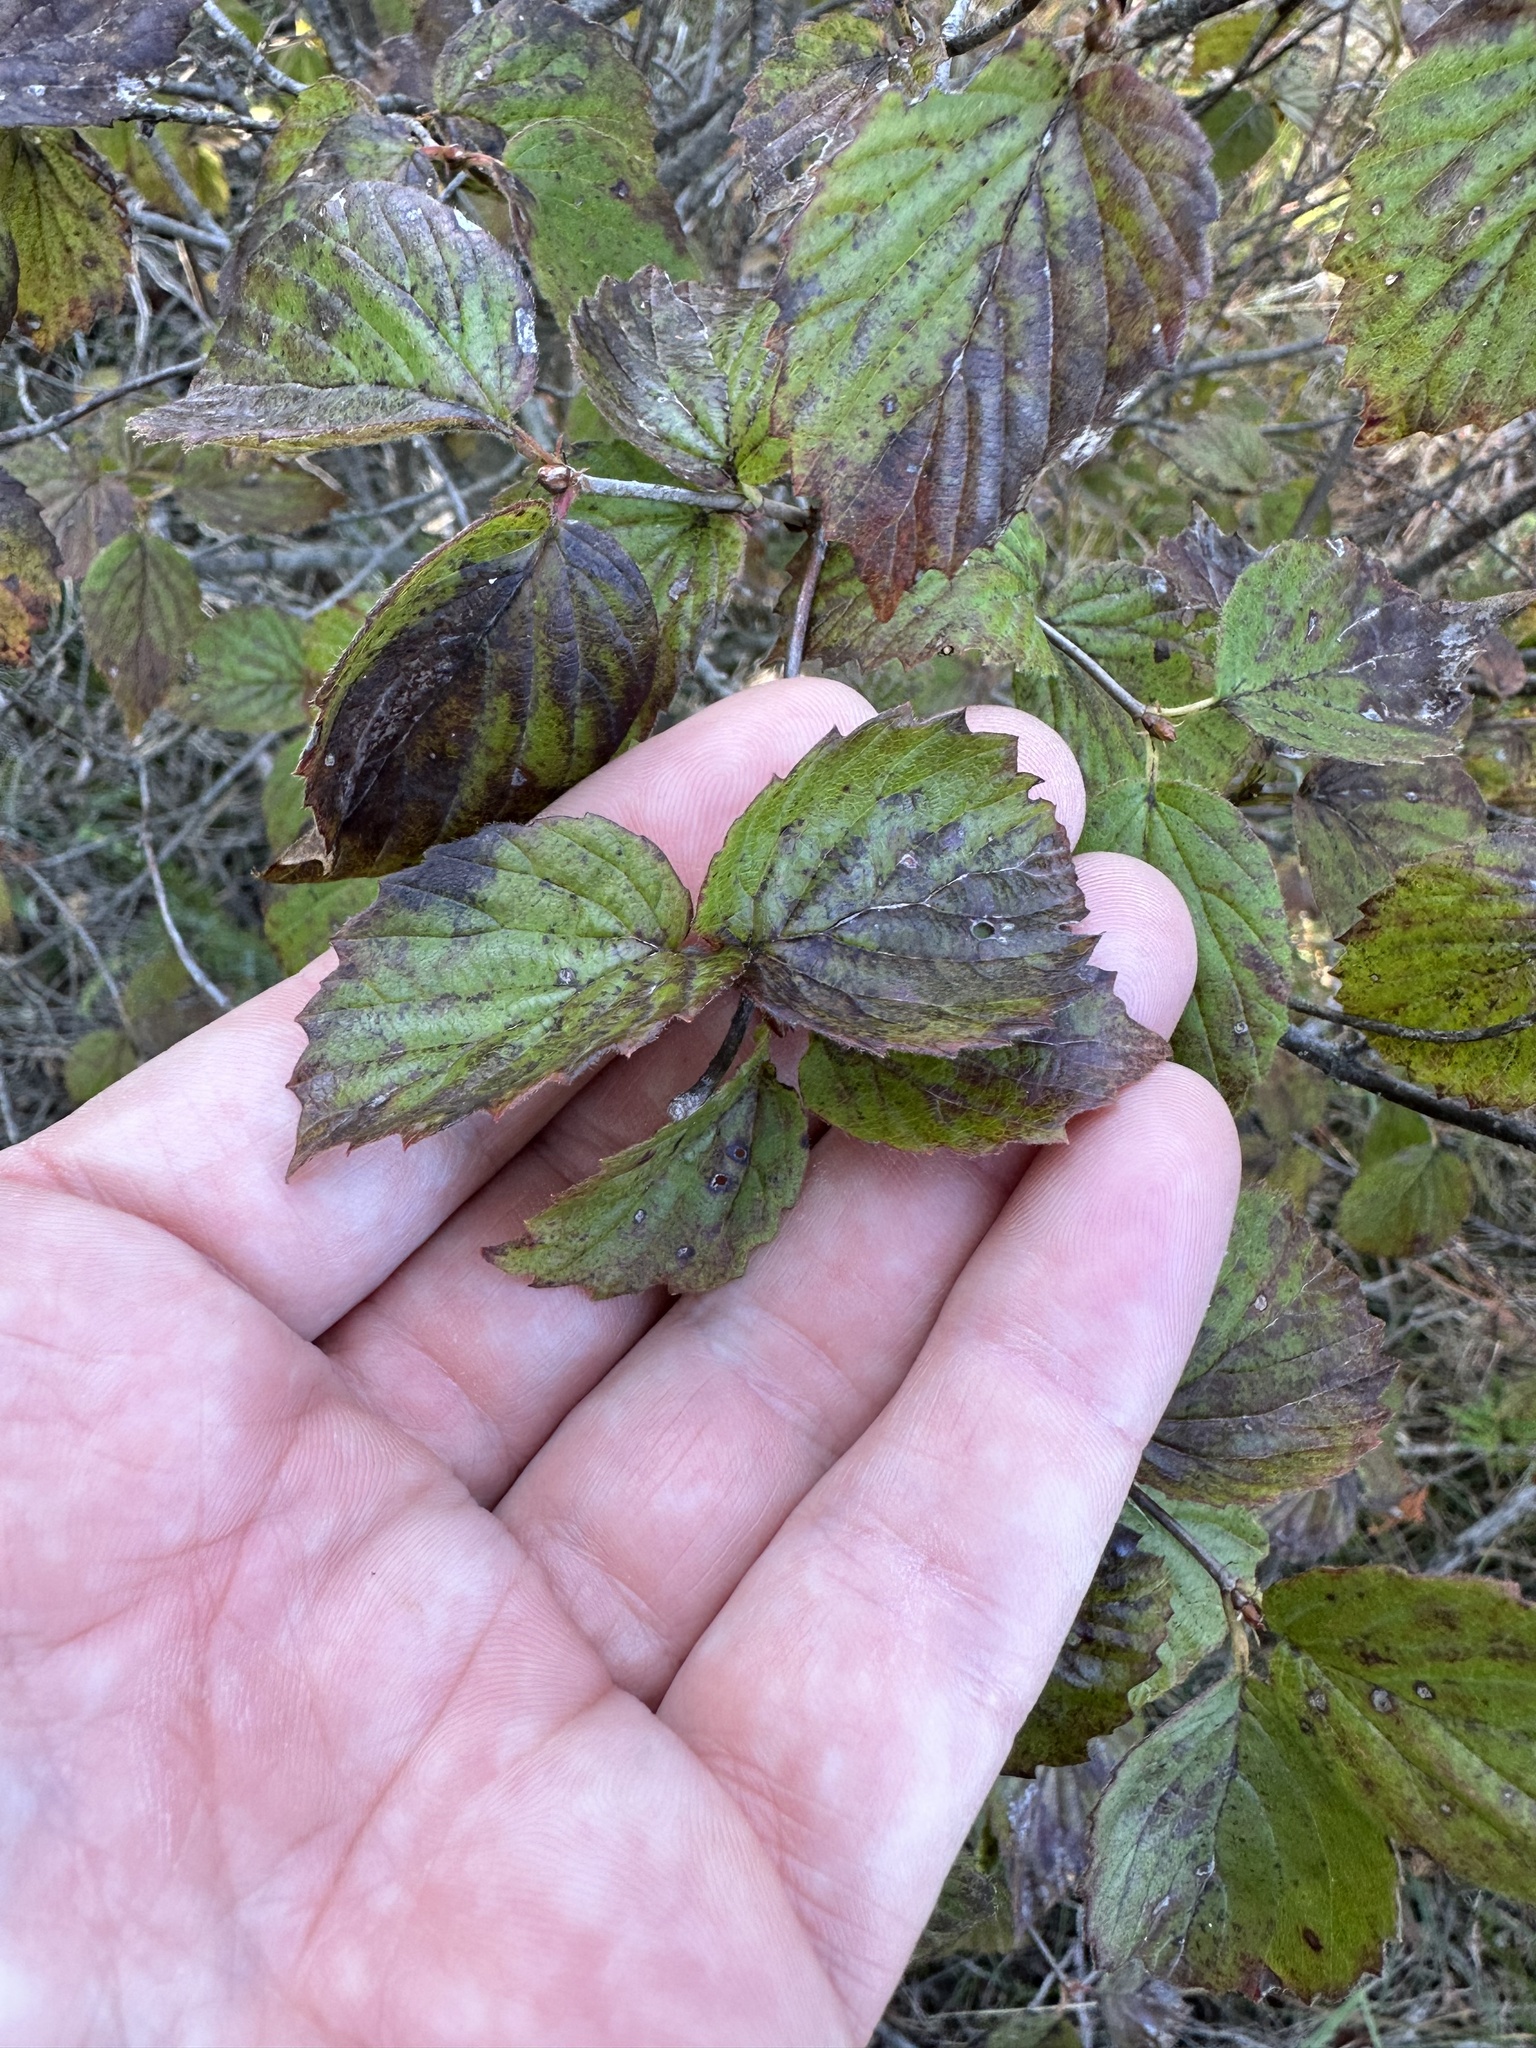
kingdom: Plantae
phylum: Tracheophyta
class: Magnoliopsida
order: Dipsacales
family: Viburnaceae
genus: Viburnum
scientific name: Viburnum rafinesqueanum
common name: Downy arrow-wood
